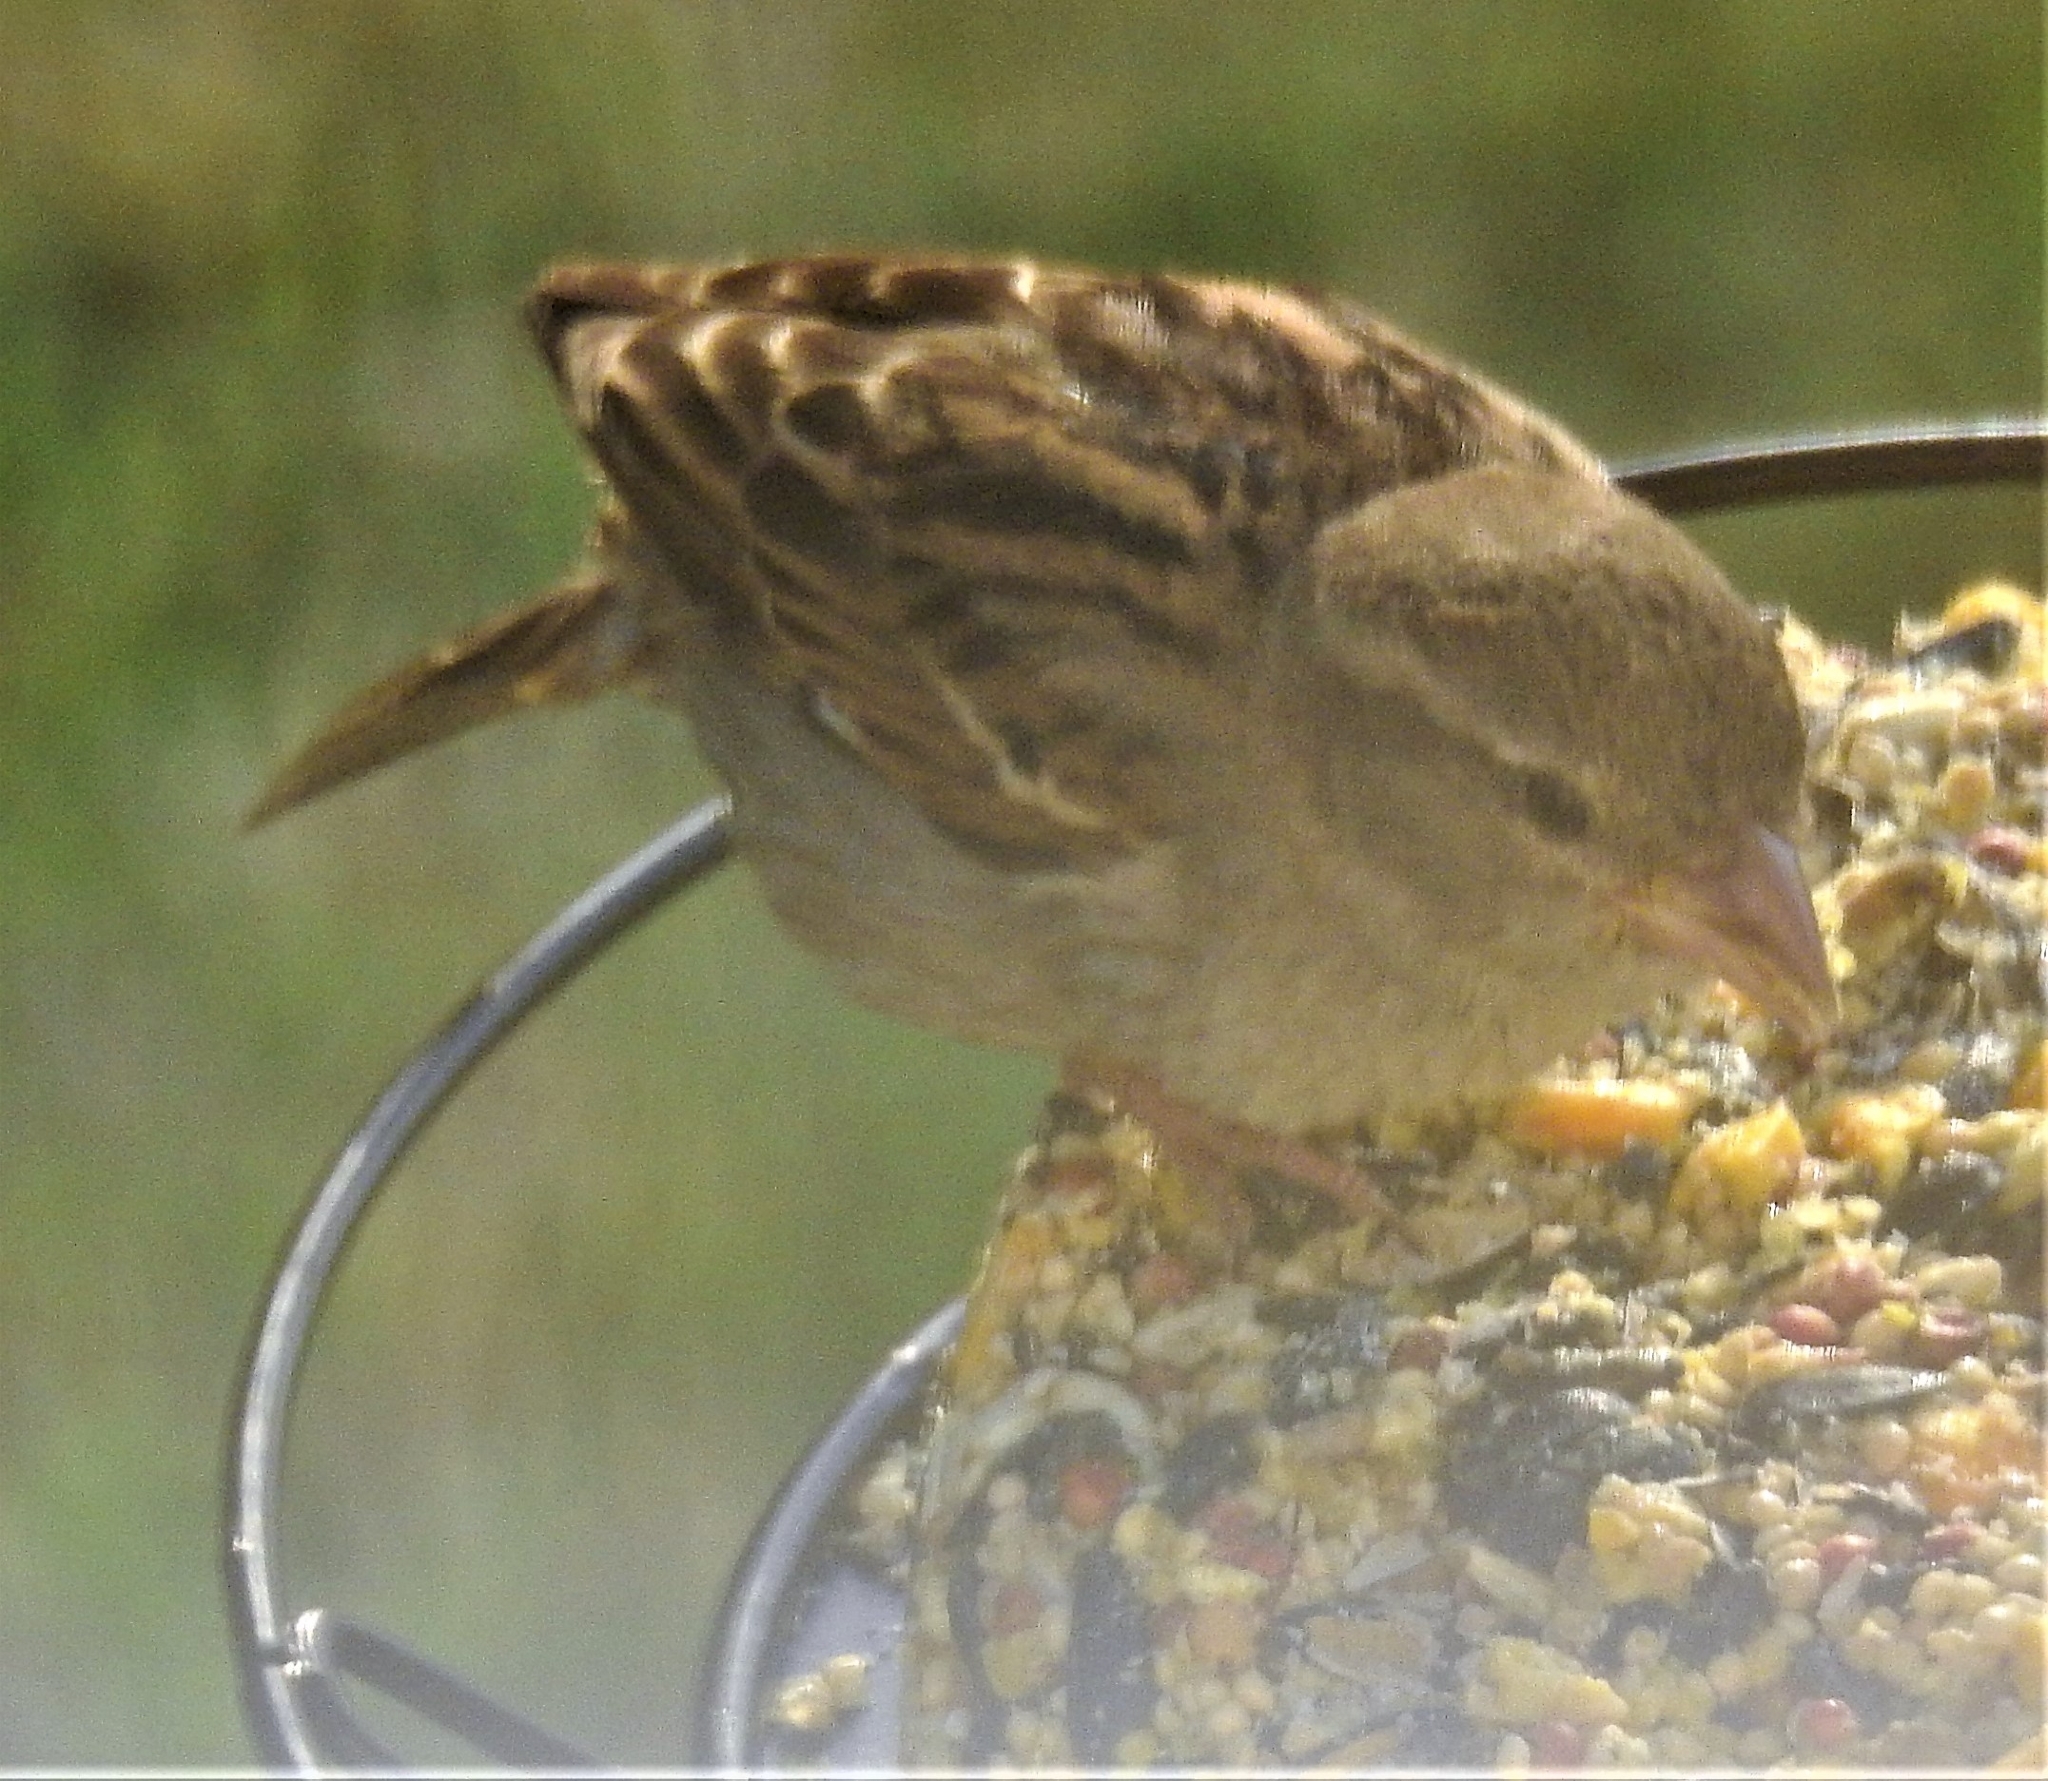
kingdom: Animalia
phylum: Chordata
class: Aves
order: Passeriformes
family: Passeridae
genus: Passer
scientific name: Passer domesticus
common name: House sparrow
